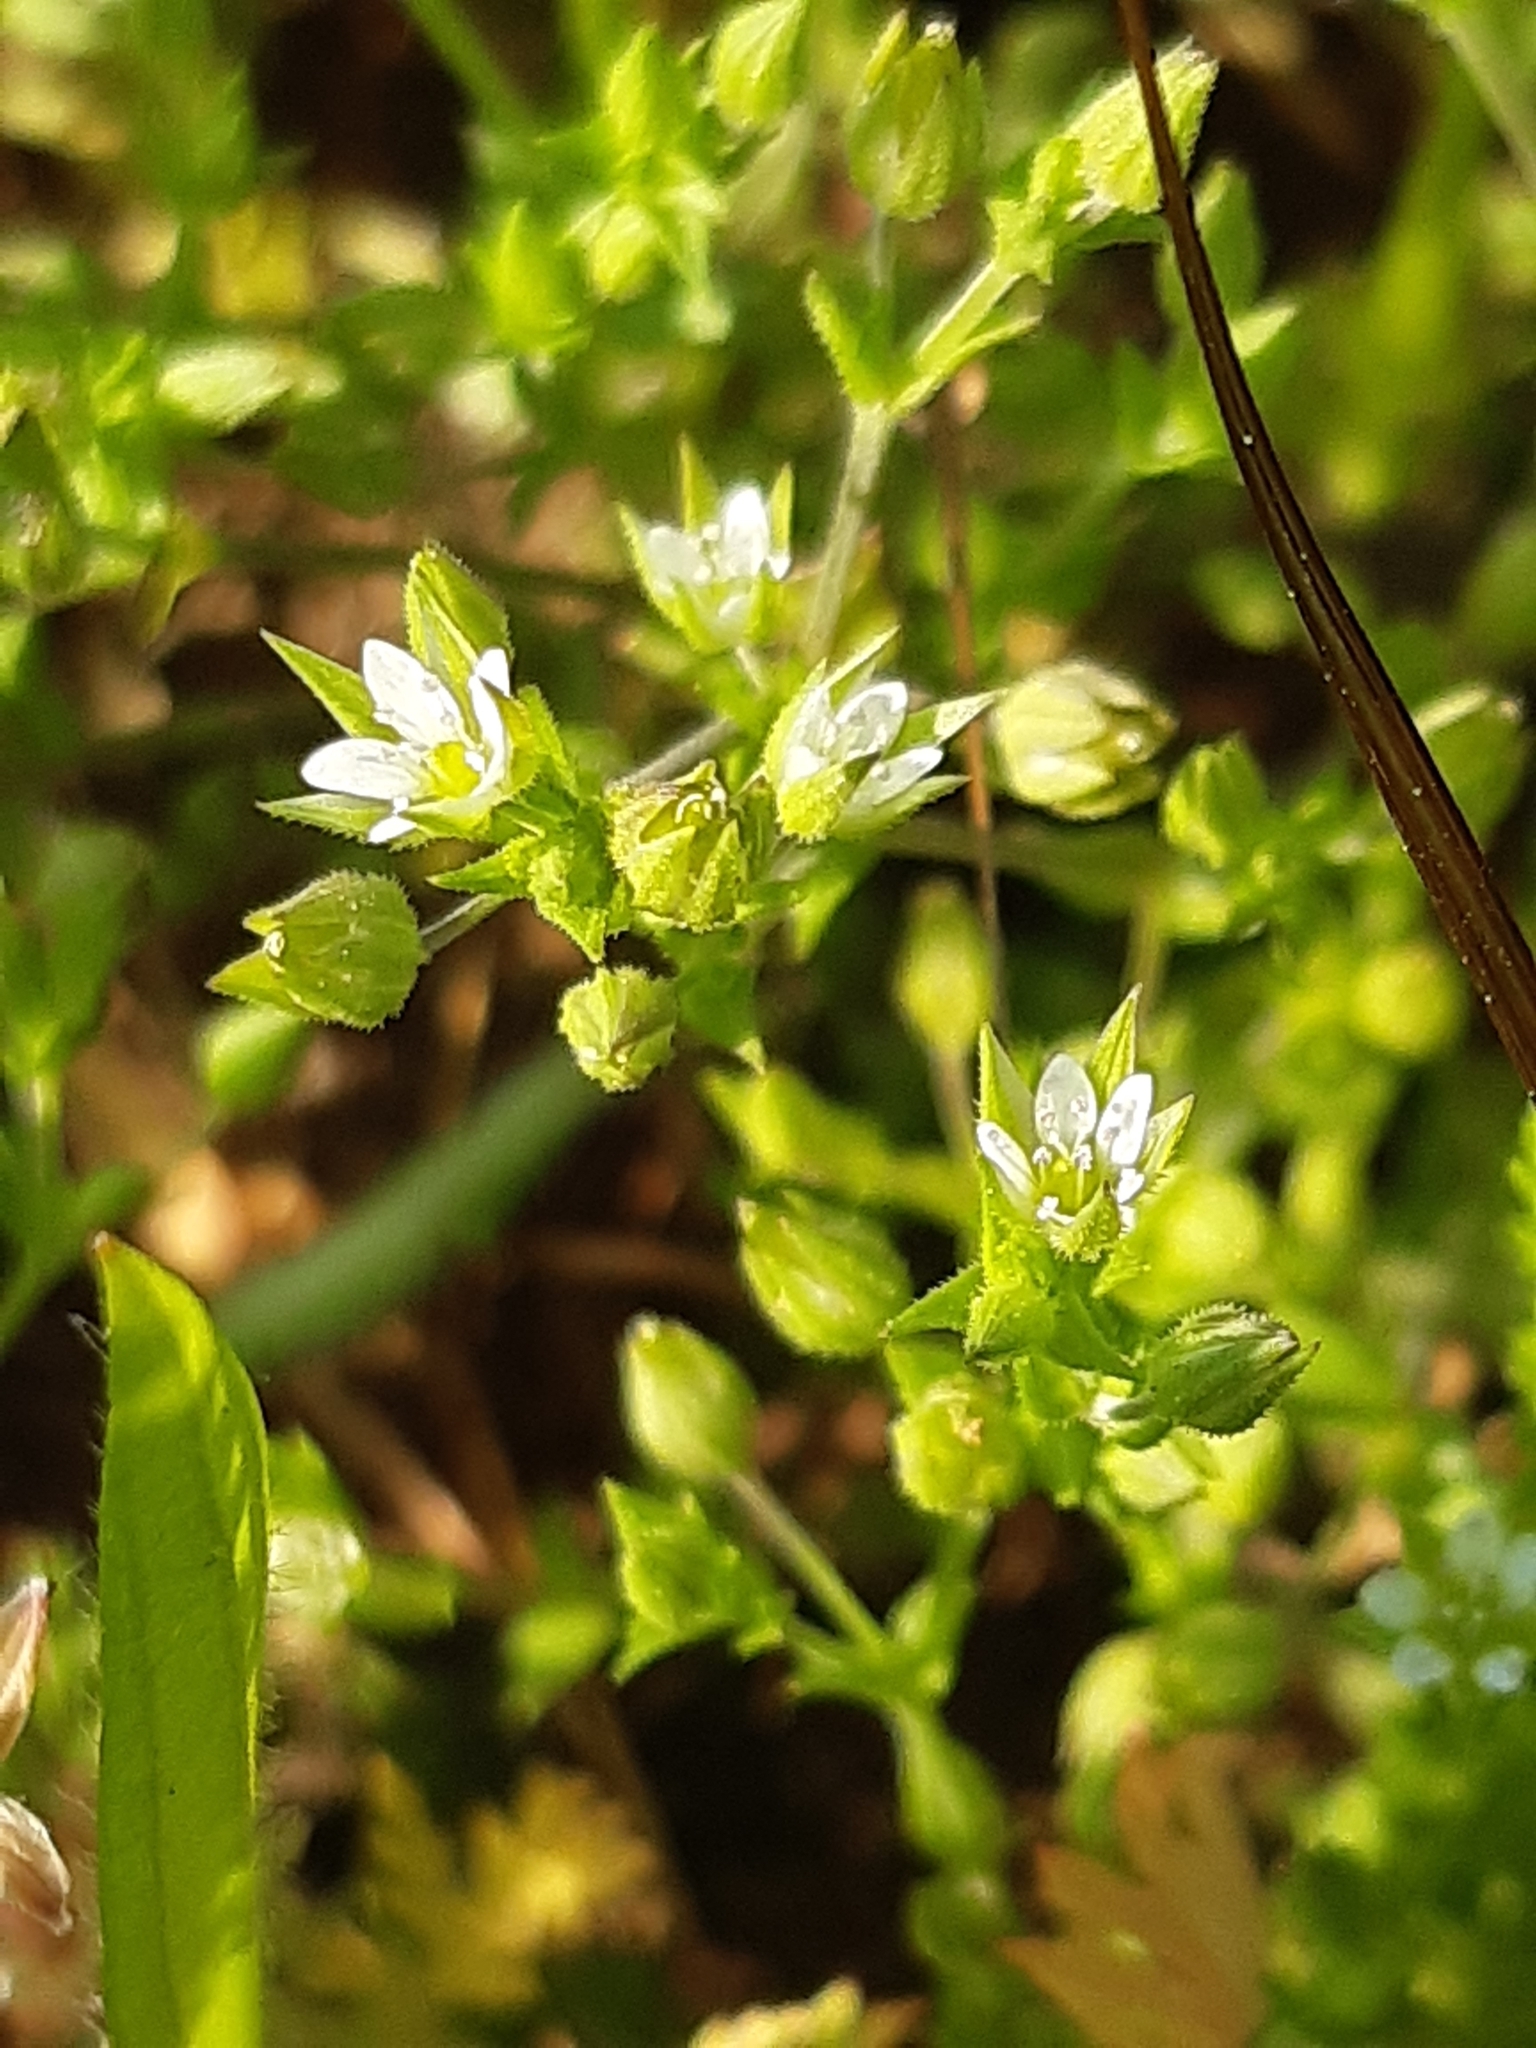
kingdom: Plantae
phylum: Tracheophyta
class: Magnoliopsida
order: Caryophyllales
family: Caryophyllaceae
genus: Arenaria
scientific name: Arenaria serpyllifolia
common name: Thyme-leaved sandwort
